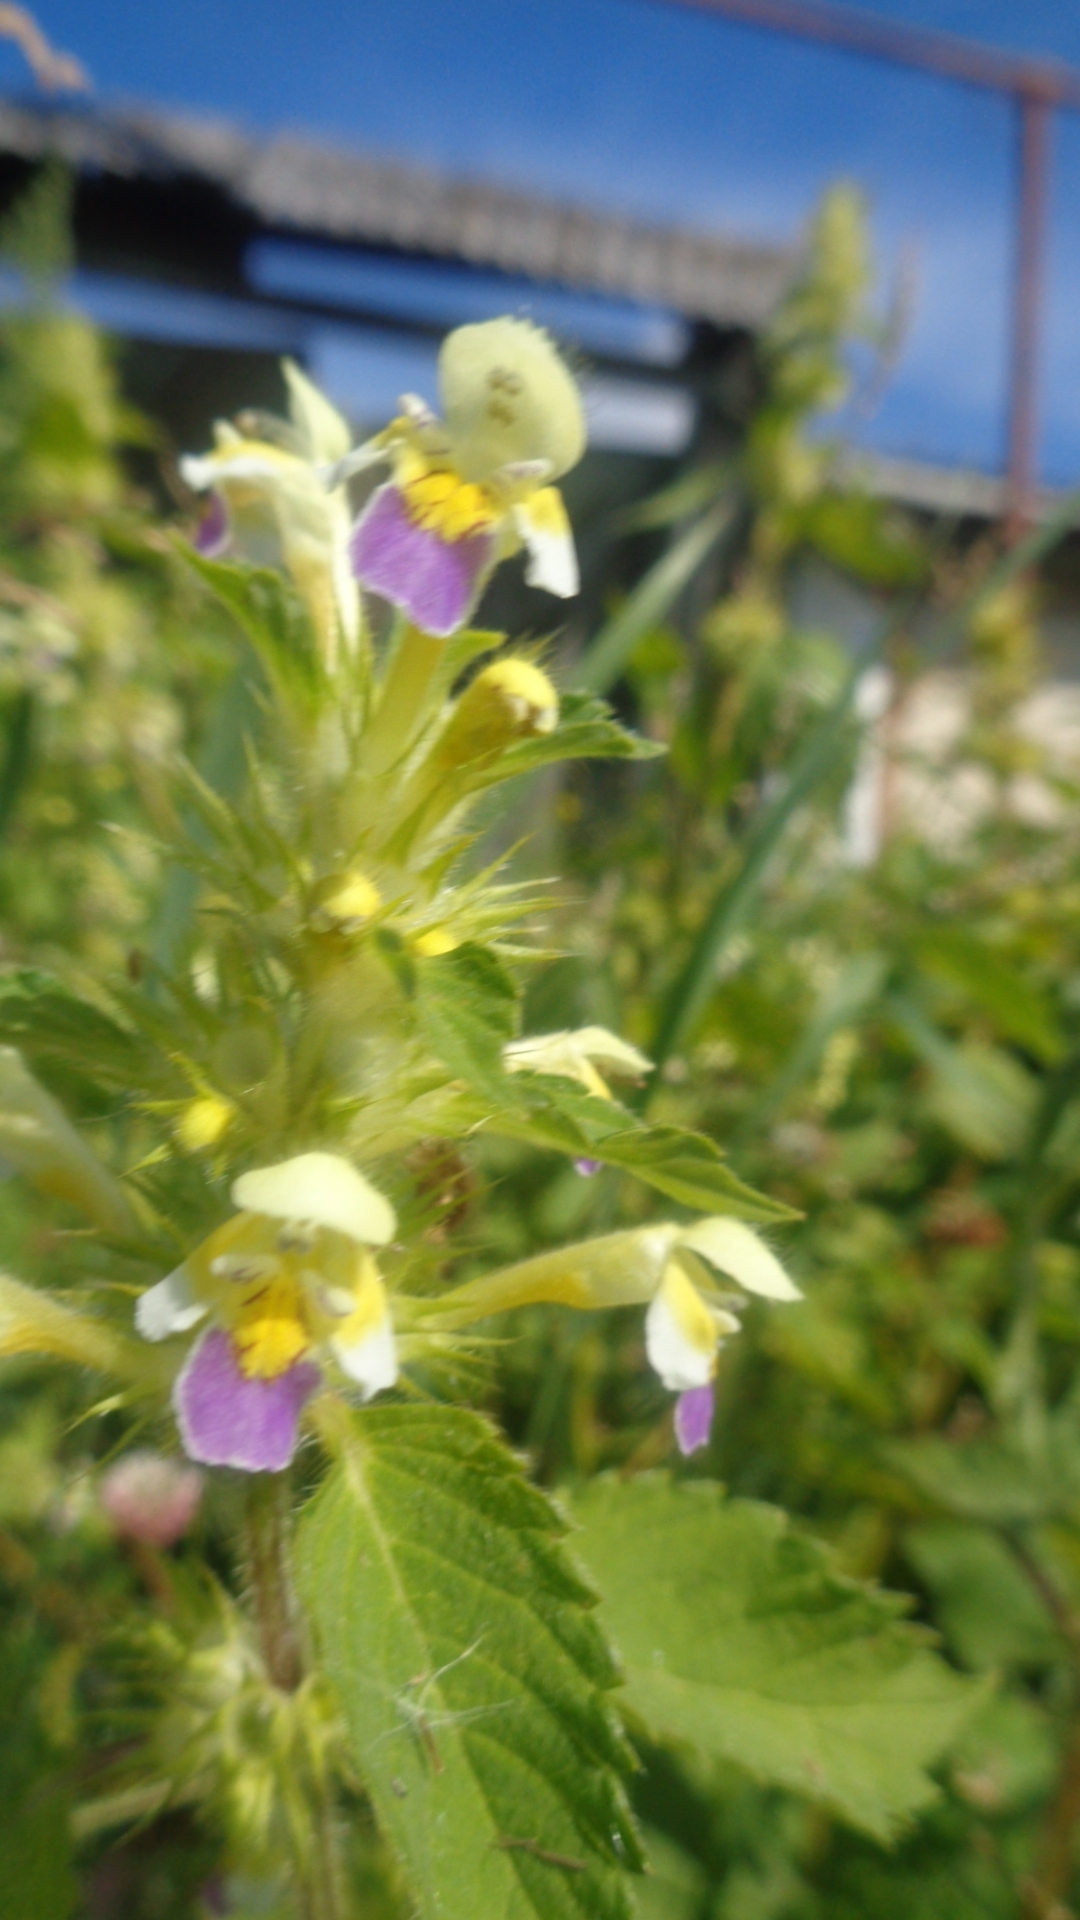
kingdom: Plantae
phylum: Tracheophyta
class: Magnoliopsida
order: Lamiales
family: Lamiaceae
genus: Galeopsis
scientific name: Galeopsis speciosa
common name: Large-flowered hemp-nettle
